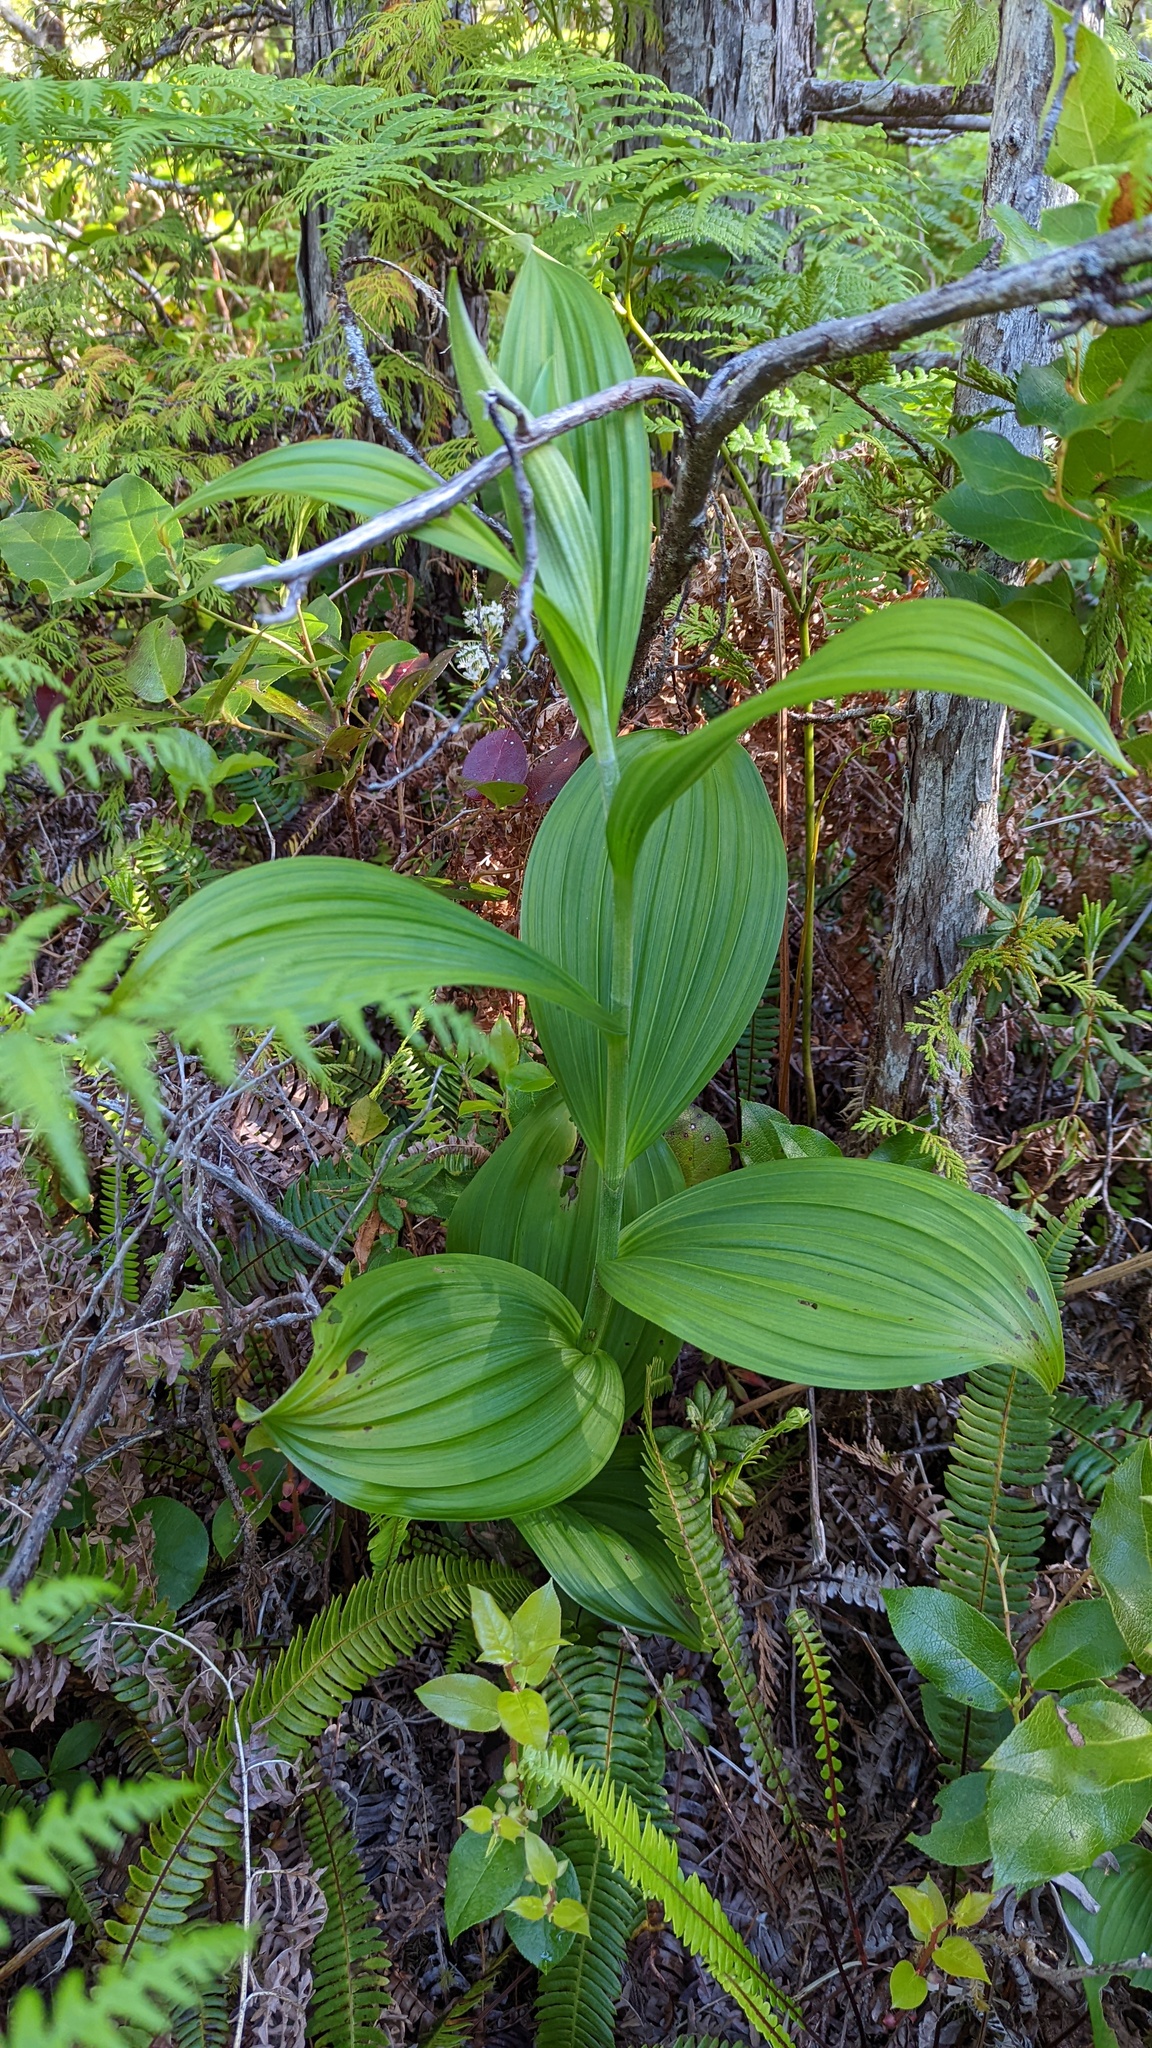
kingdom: Plantae
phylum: Tracheophyta
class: Liliopsida
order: Liliales
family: Melanthiaceae
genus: Veratrum
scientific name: Veratrum viride
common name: American false hellebore
